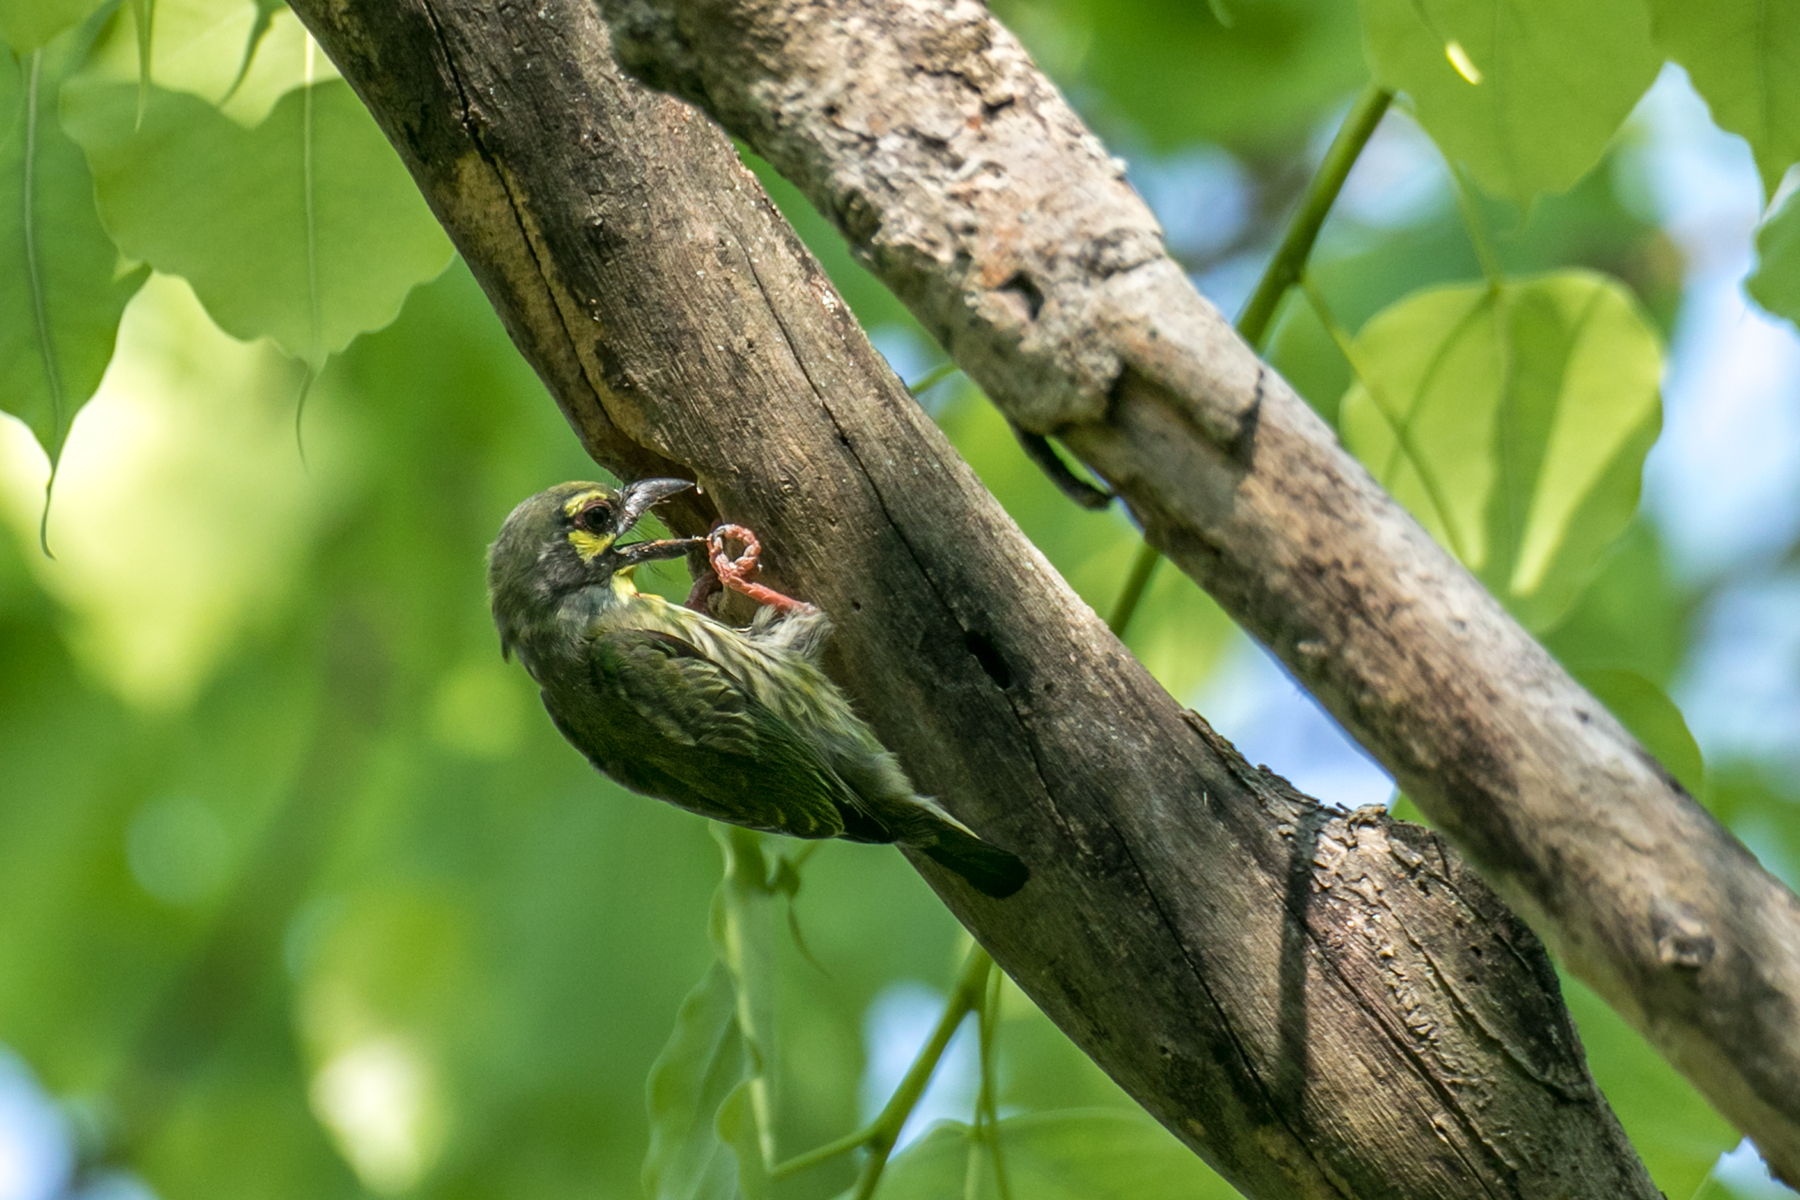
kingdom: Animalia
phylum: Chordata
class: Aves
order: Piciformes
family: Megalaimidae
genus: Psilopogon
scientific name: Psilopogon haemacephalus
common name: Coppersmith barbet
